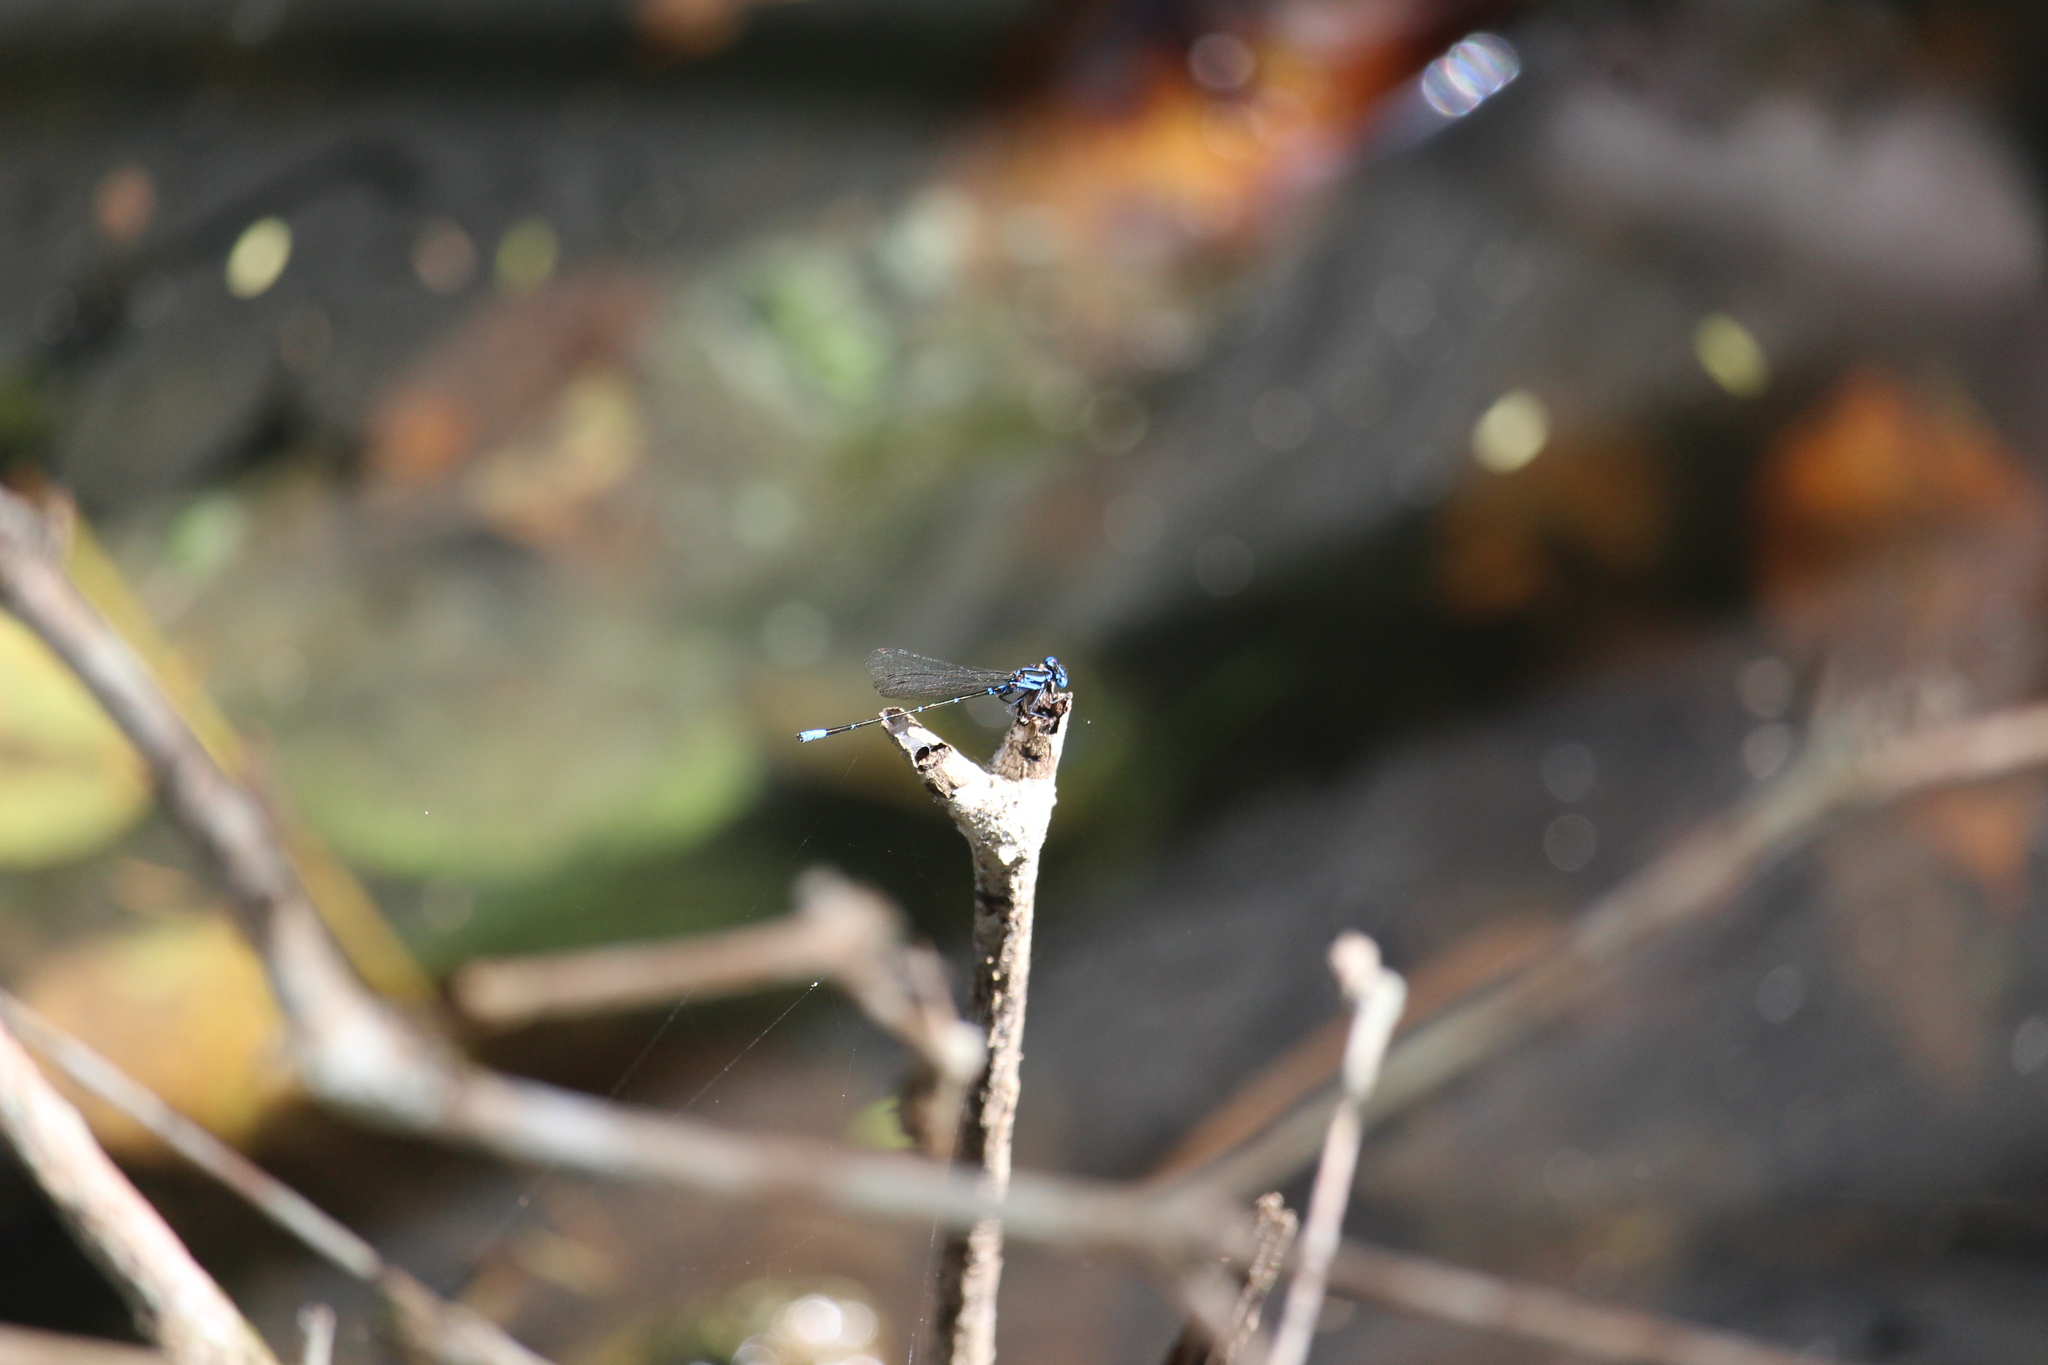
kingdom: Animalia
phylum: Arthropoda
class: Insecta
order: Odonata
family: Coenagrionidae
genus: Argia
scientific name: Argia gaumeri
